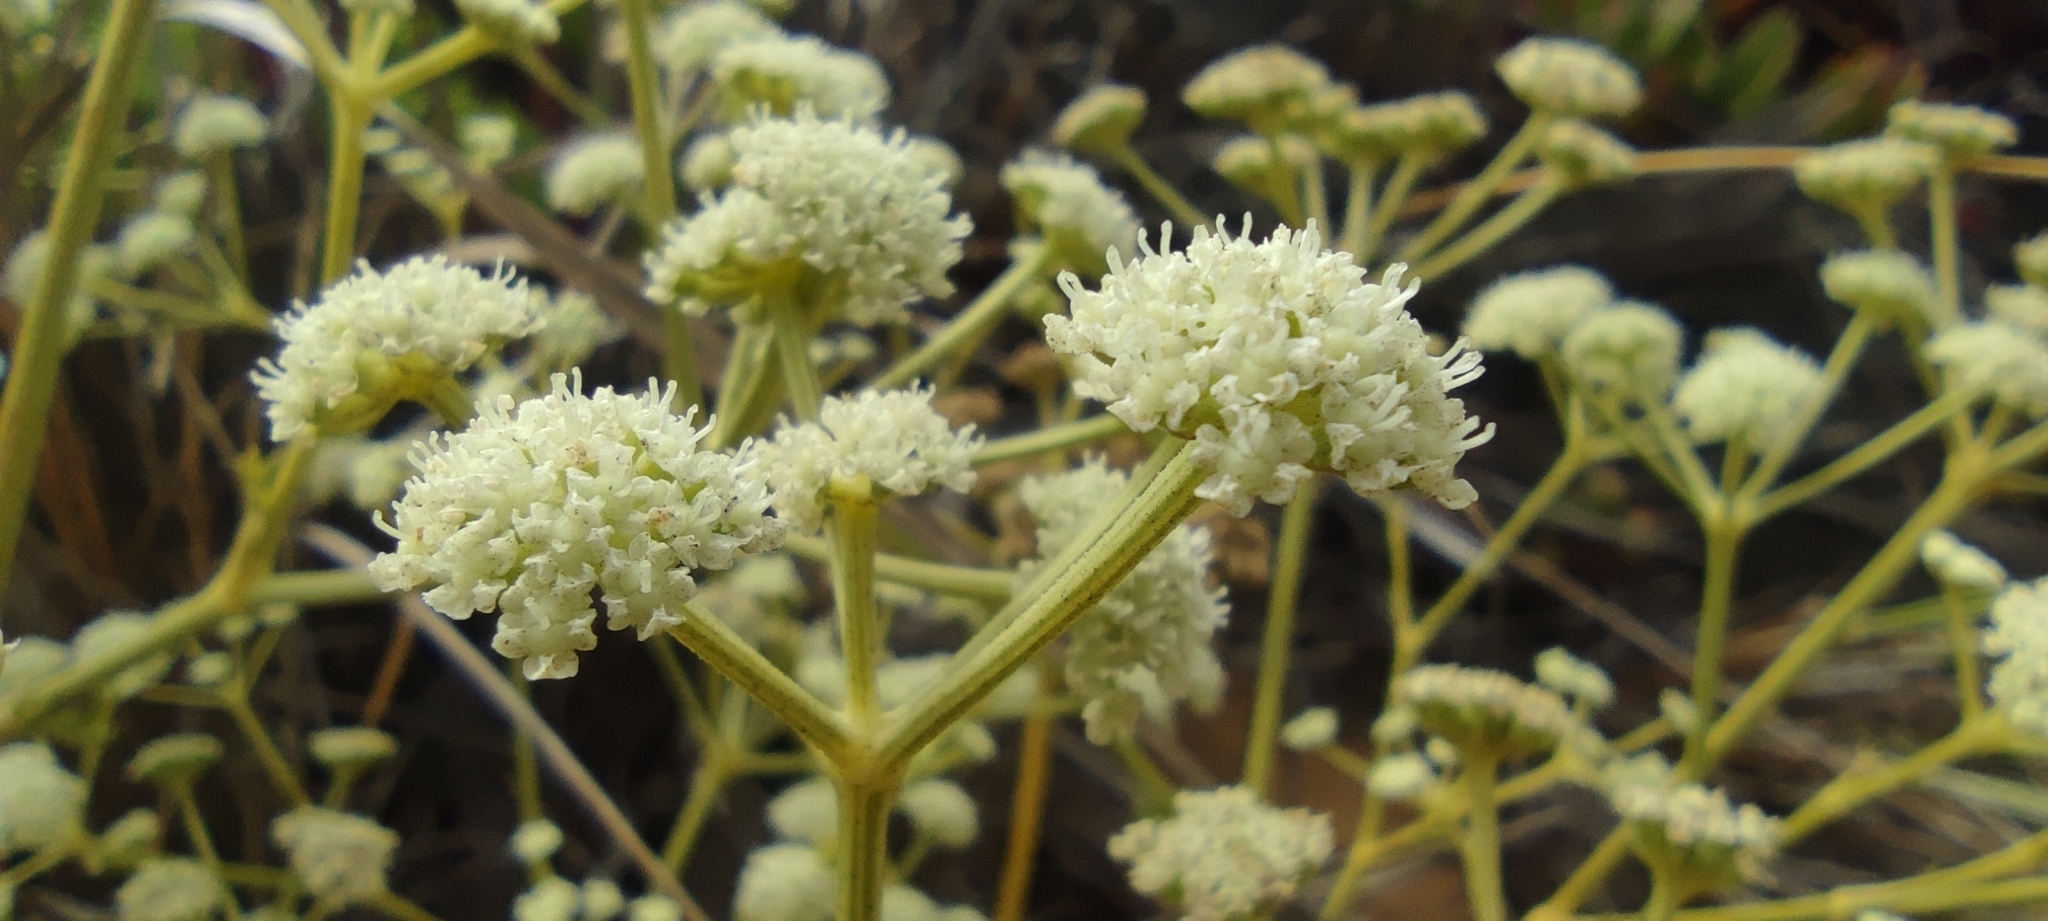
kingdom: Plantae
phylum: Tracheophyta
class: Magnoliopsida
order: Apiales
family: Apiaceae
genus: Seseli
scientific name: Seseli tortuosum
